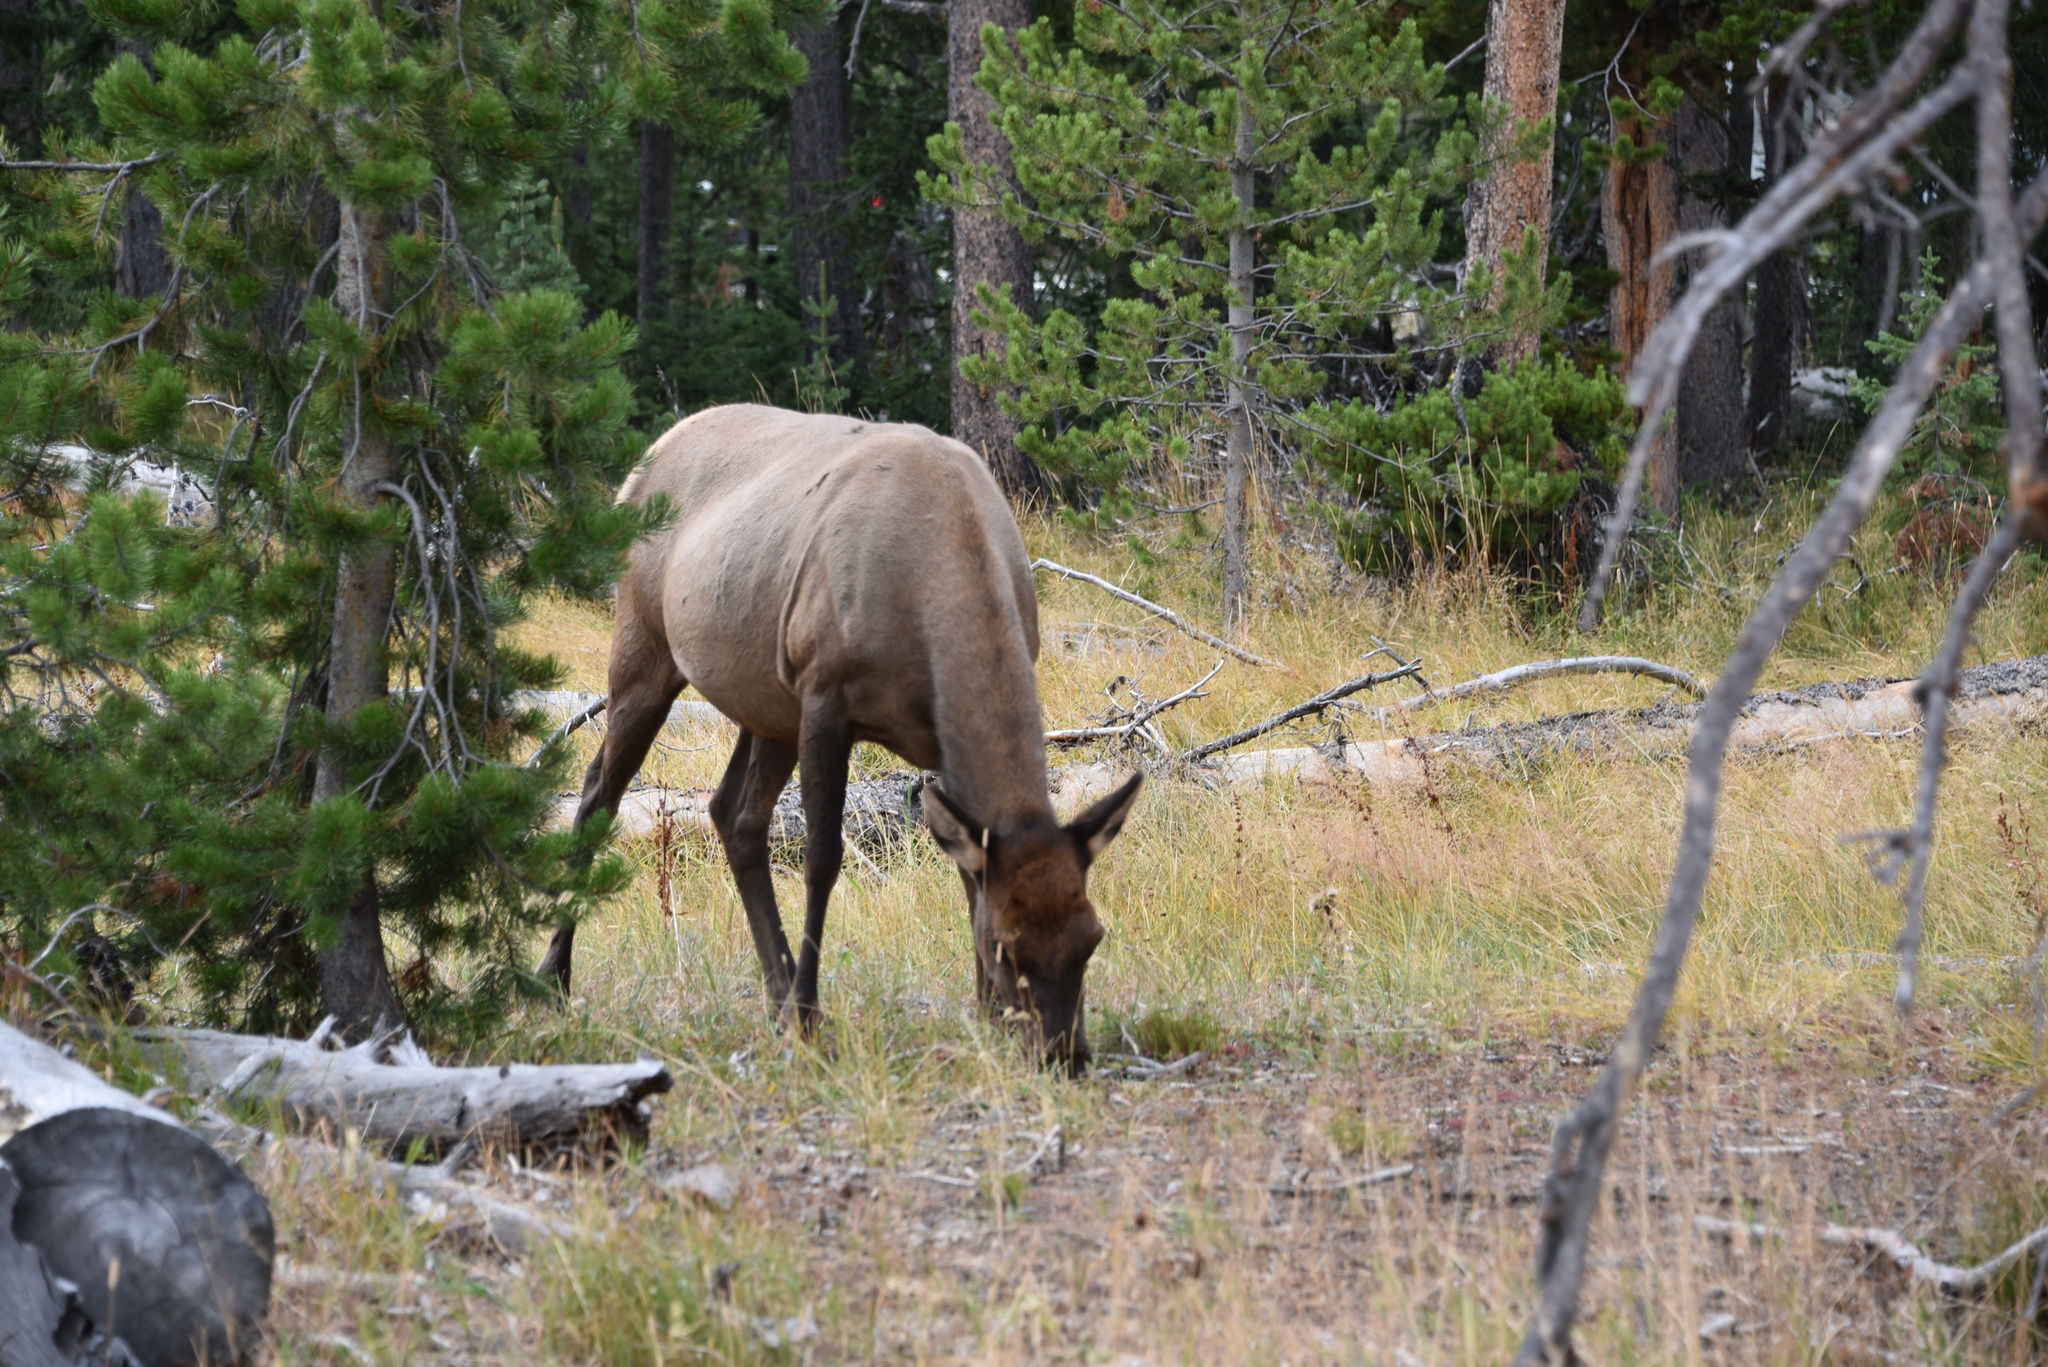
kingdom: Animalia
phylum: Chordata
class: Mammalia
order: Artiodactyla
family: Cervidae
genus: Cervus
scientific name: Cervus elaphus
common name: Red deer
